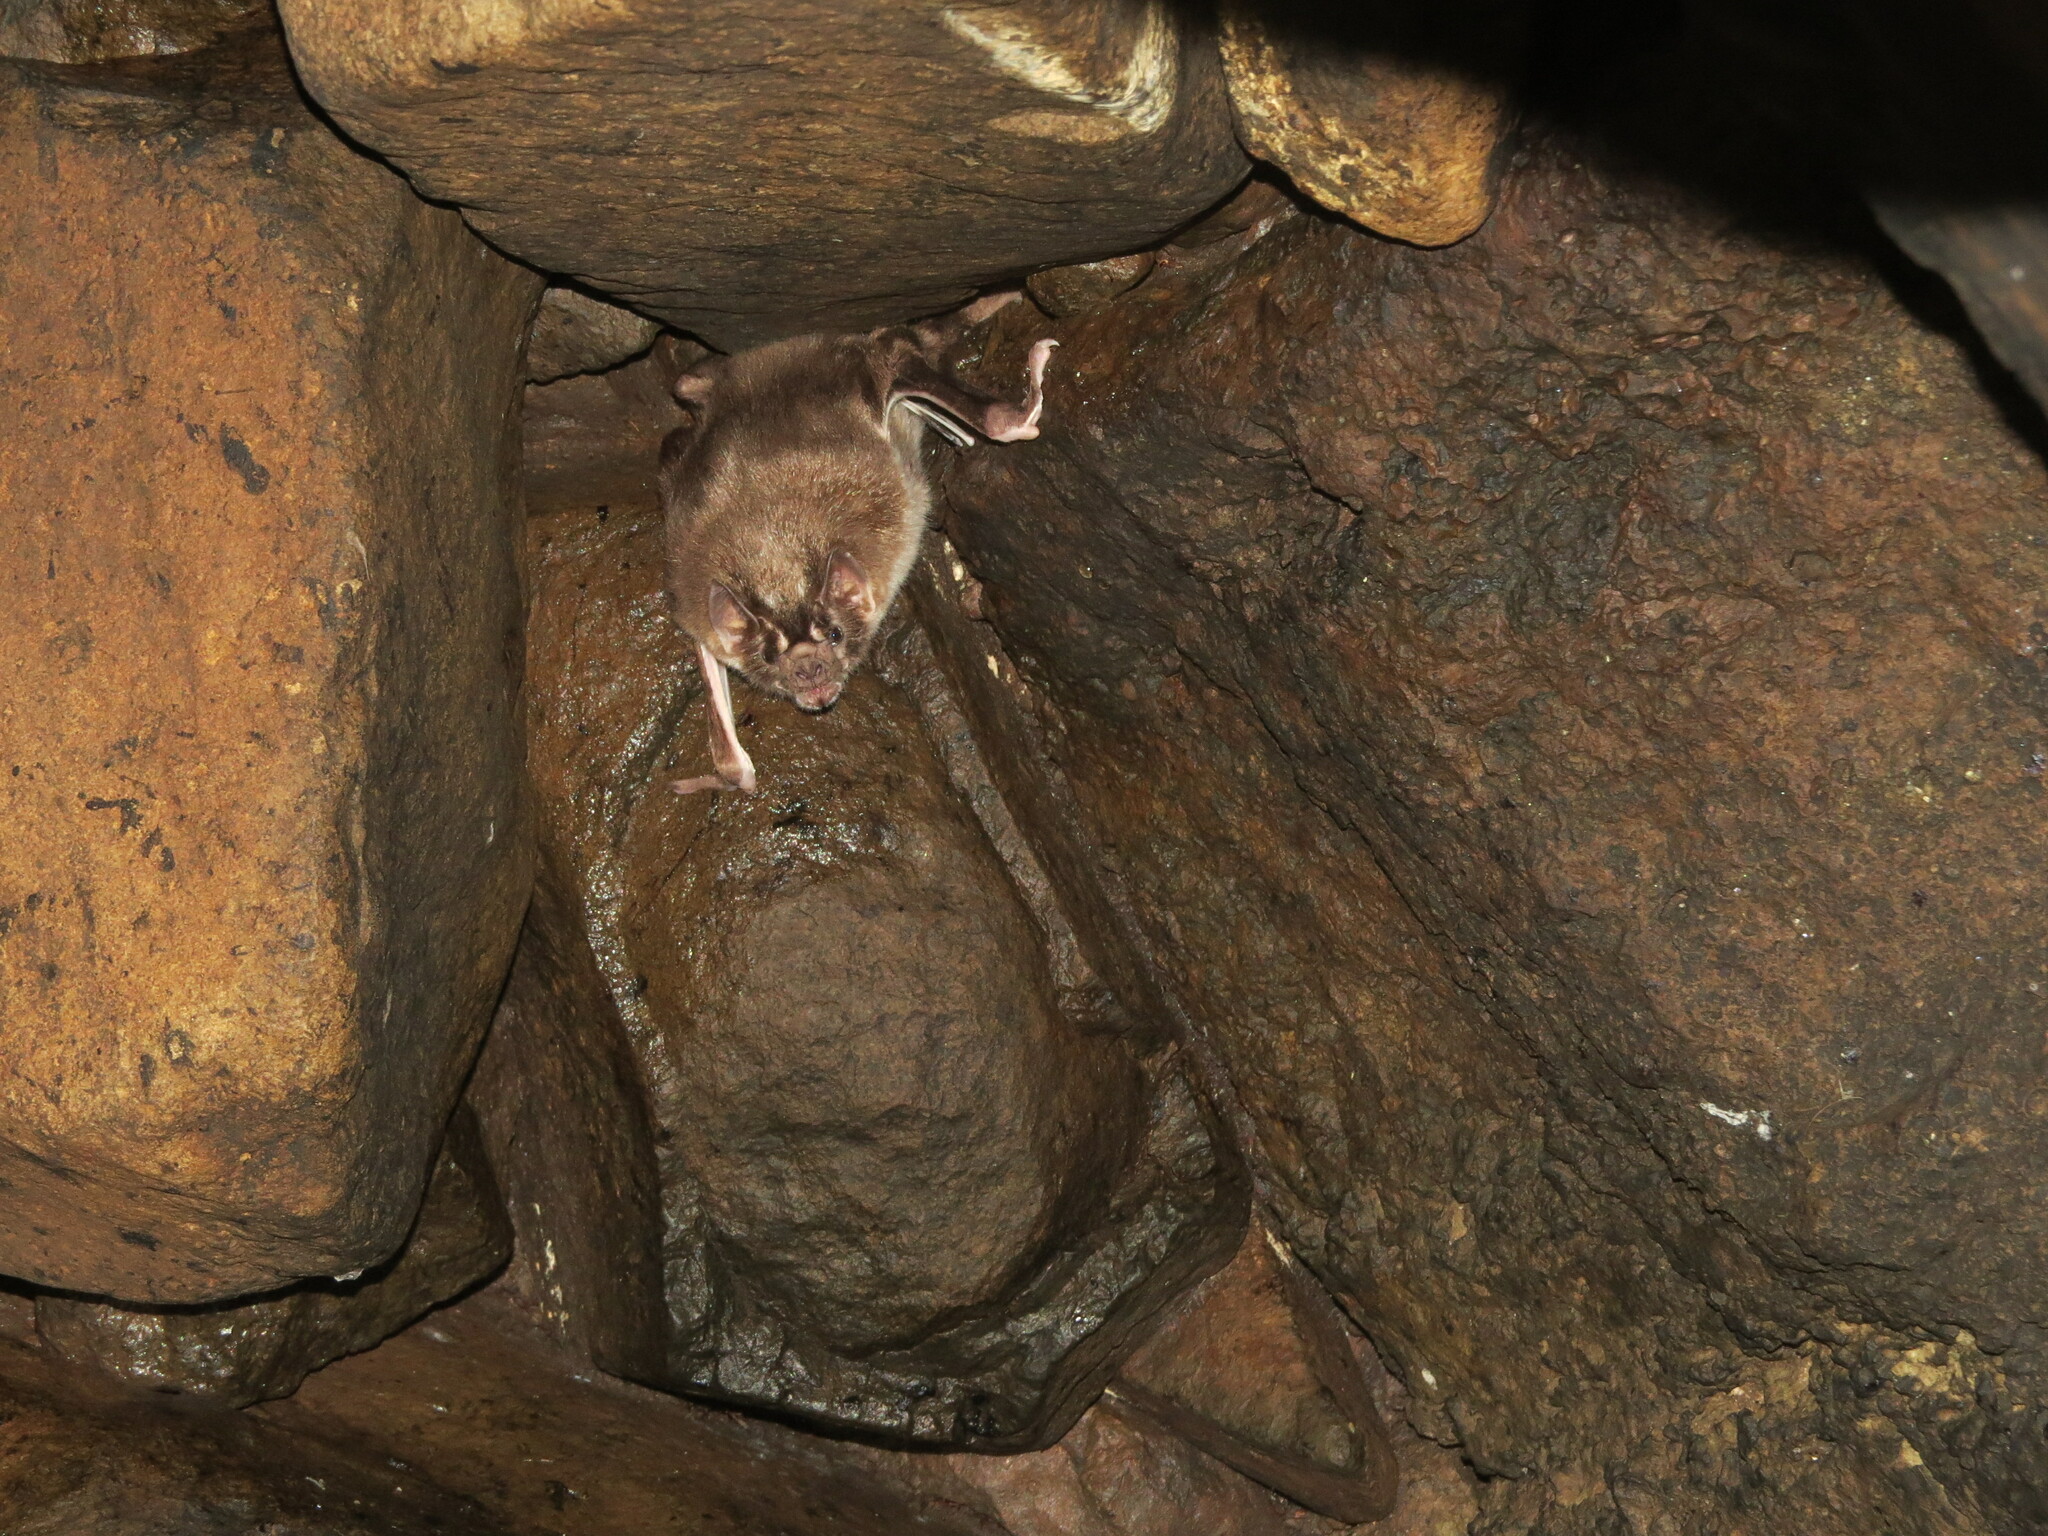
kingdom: Animalia
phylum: Chordata
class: Mammalia
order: Chiroptera
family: Phyllostomidae
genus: Desmodus
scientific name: Desmodus rotundus
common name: Common vampire bat
